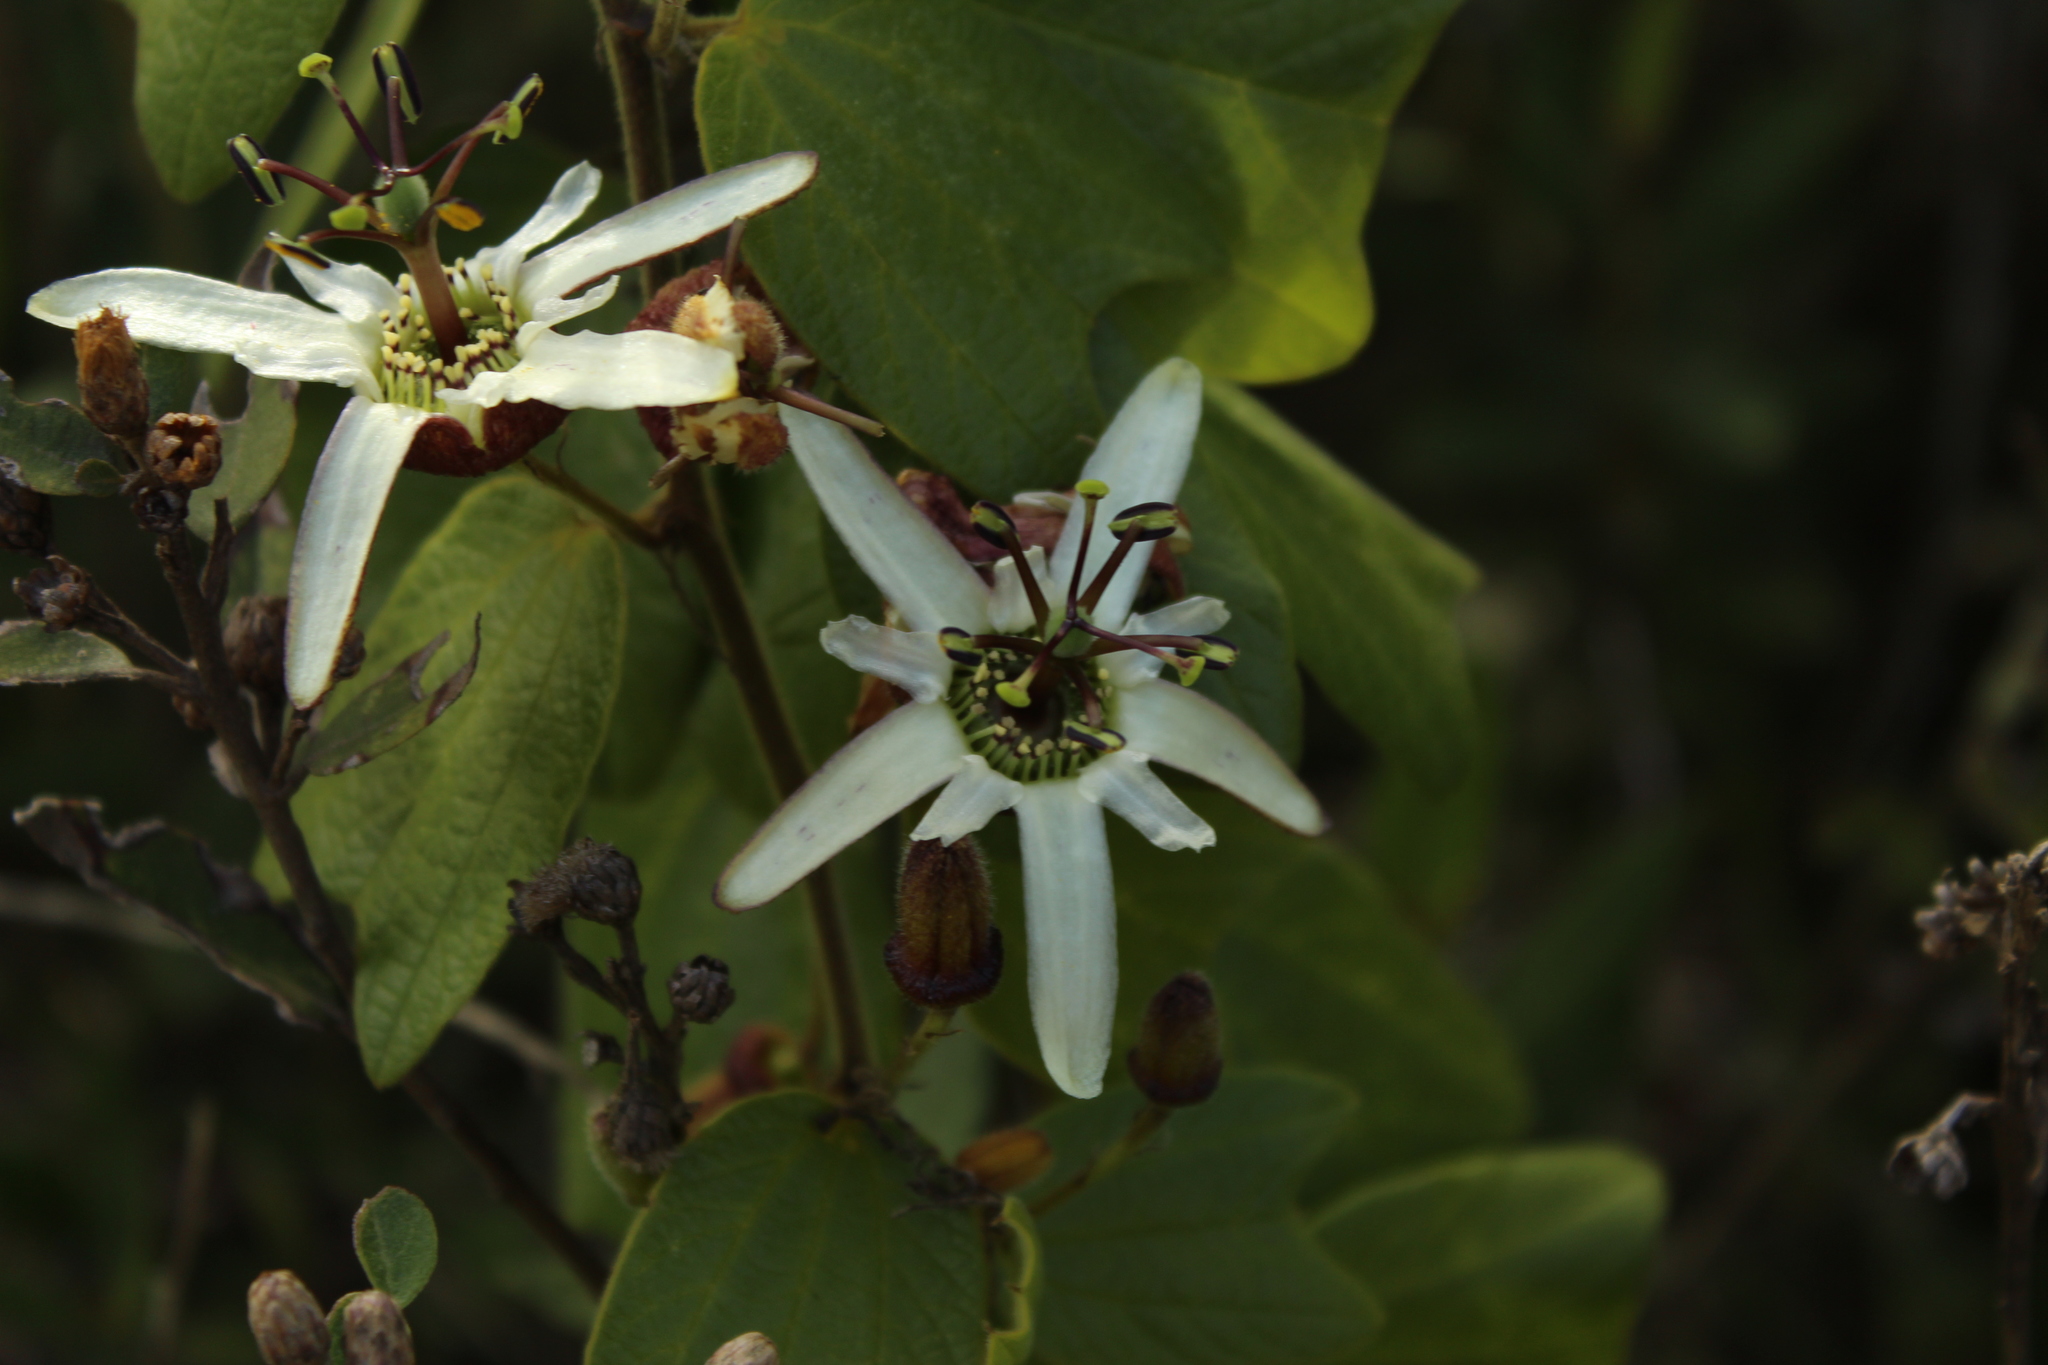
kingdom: Plantae
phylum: Tracheophyta
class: Magnoliopsida
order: Malpighiales
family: Passifloraceae
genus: Passiflora
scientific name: Passiflora bogotensis
